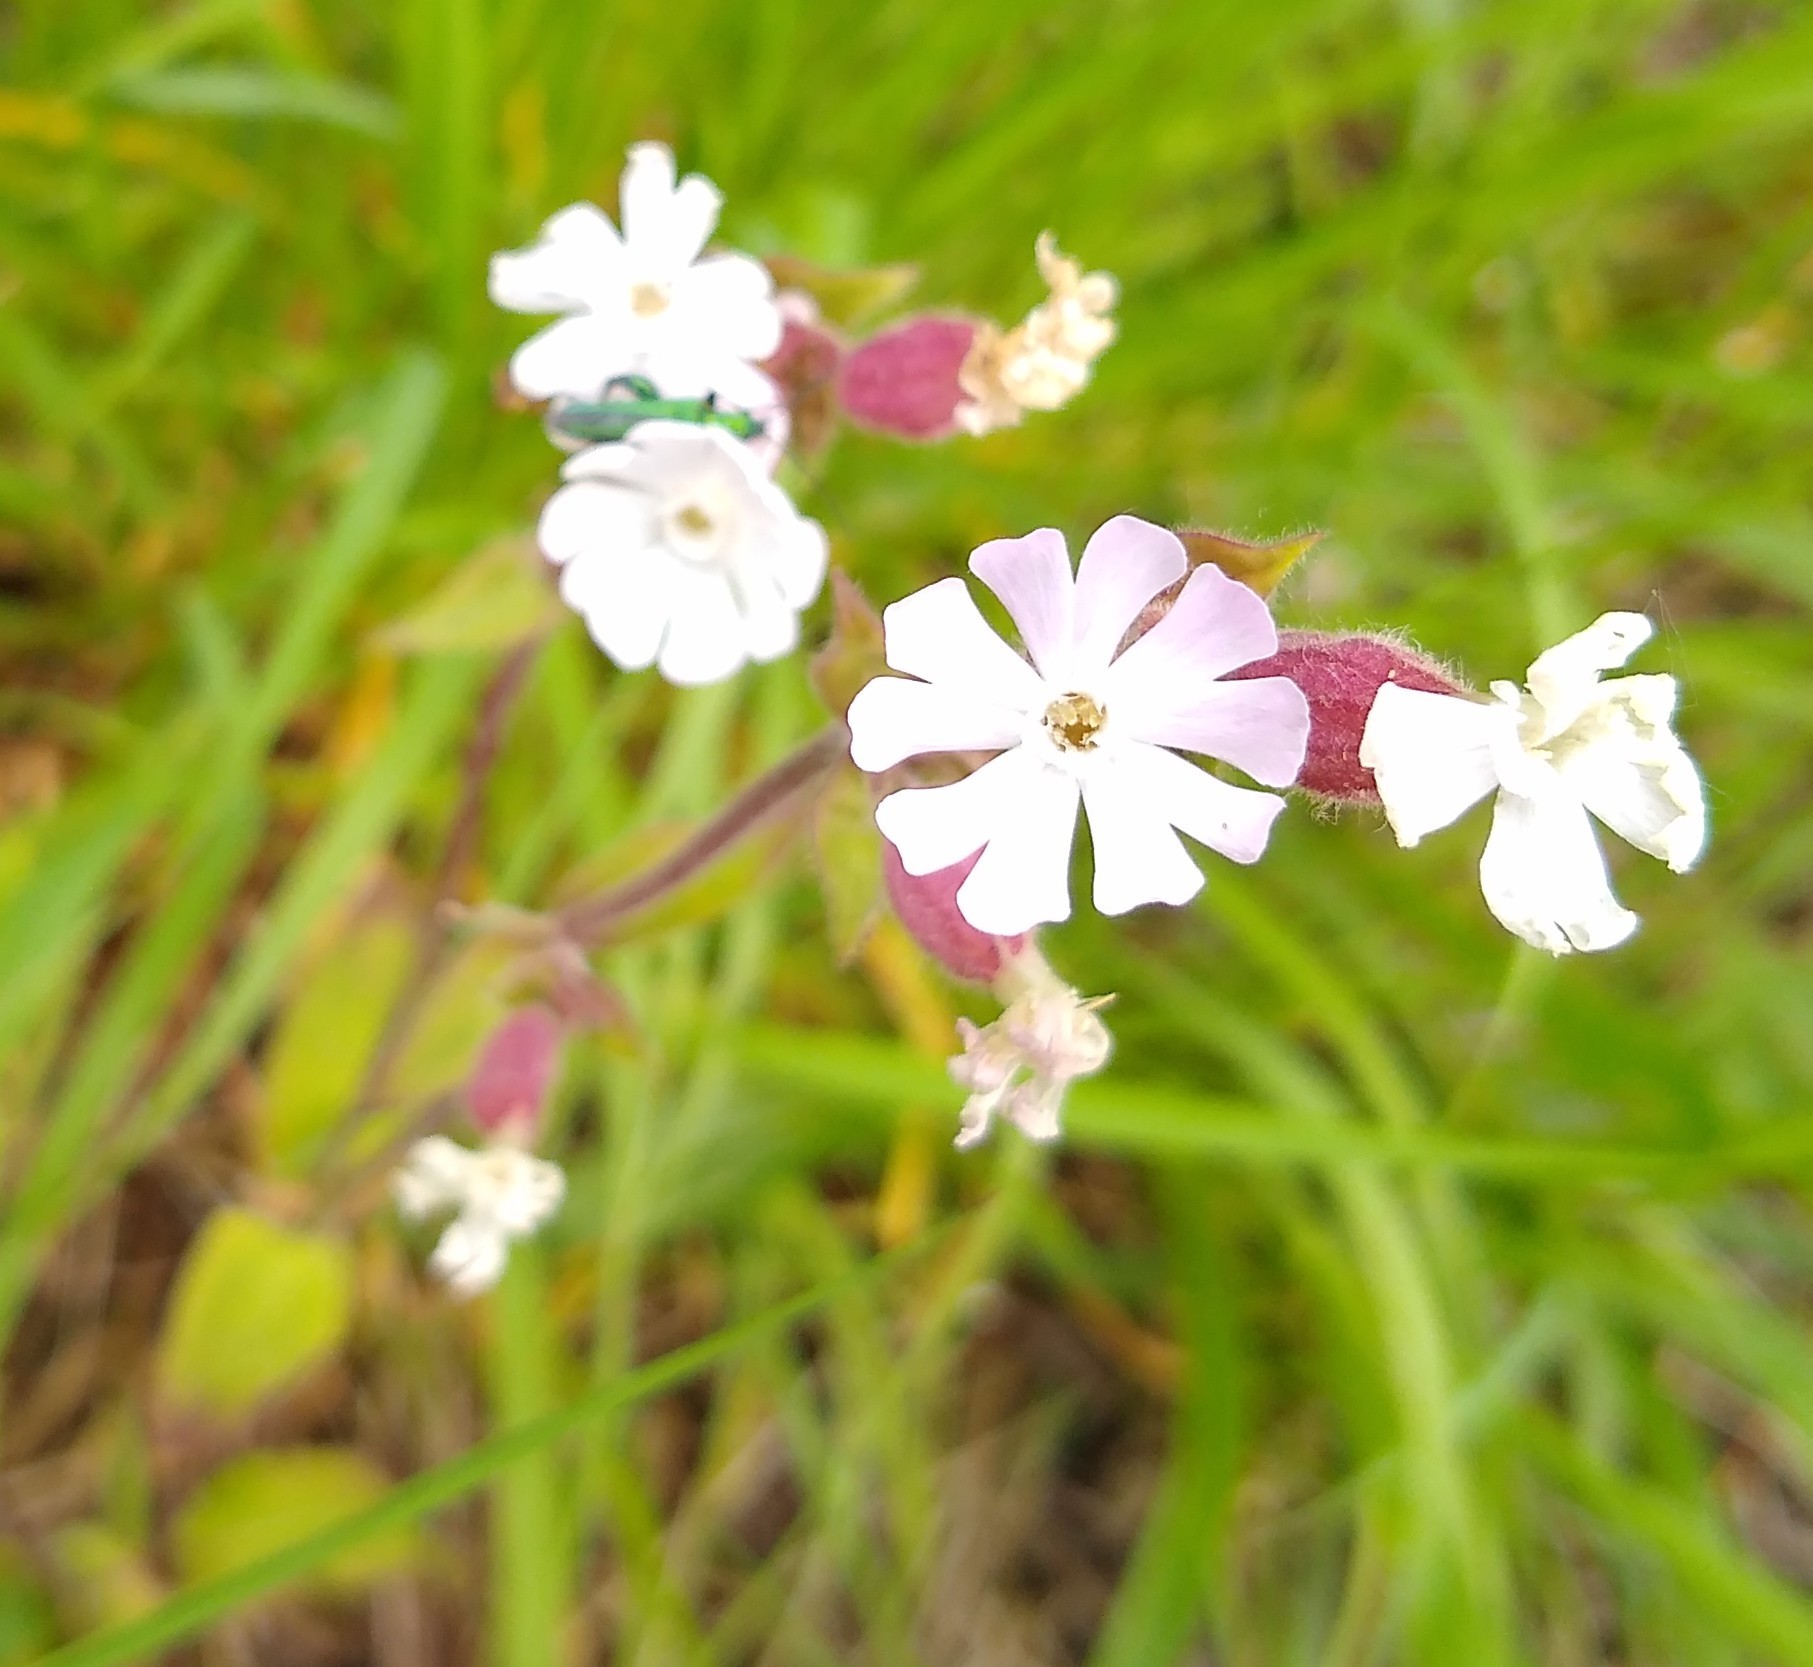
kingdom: Plantae
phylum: Tracheophyta
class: Magnoliopsida
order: Caryophyllales
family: Caryophyllaceae
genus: Silene
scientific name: Silene latifolia
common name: White campion
